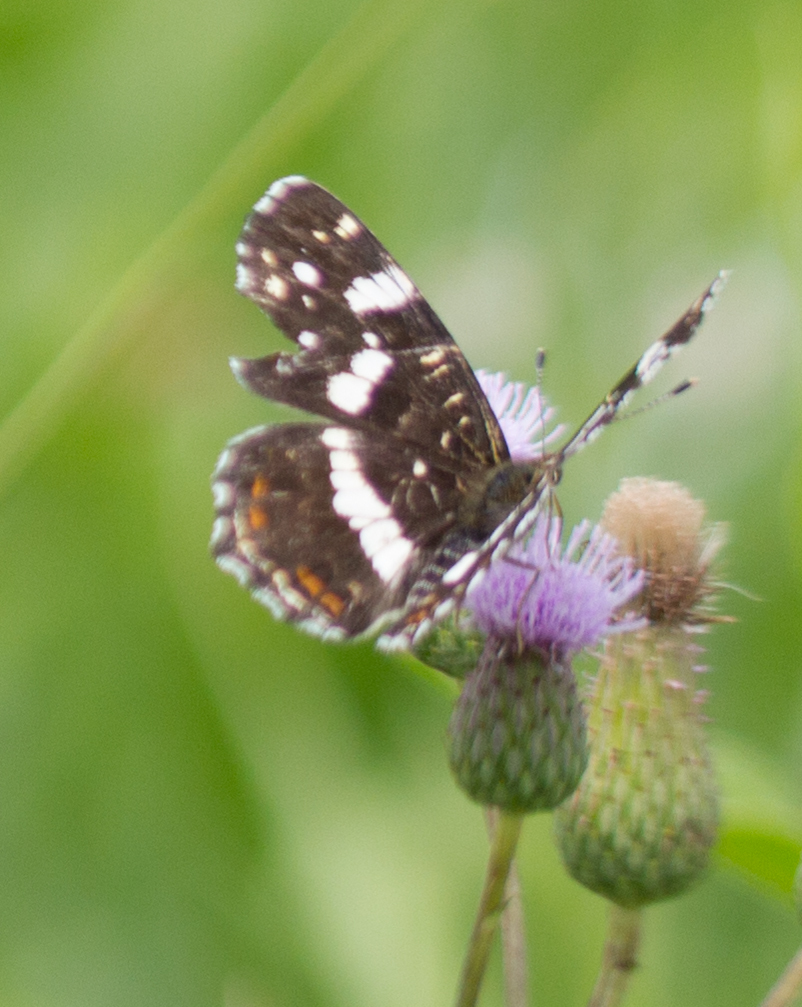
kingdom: Animalia
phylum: Arthropoda
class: Insecta
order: Lepidoptera
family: Nymphalidae
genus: Araschnia
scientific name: Araschnia levana
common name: Map butterfly
